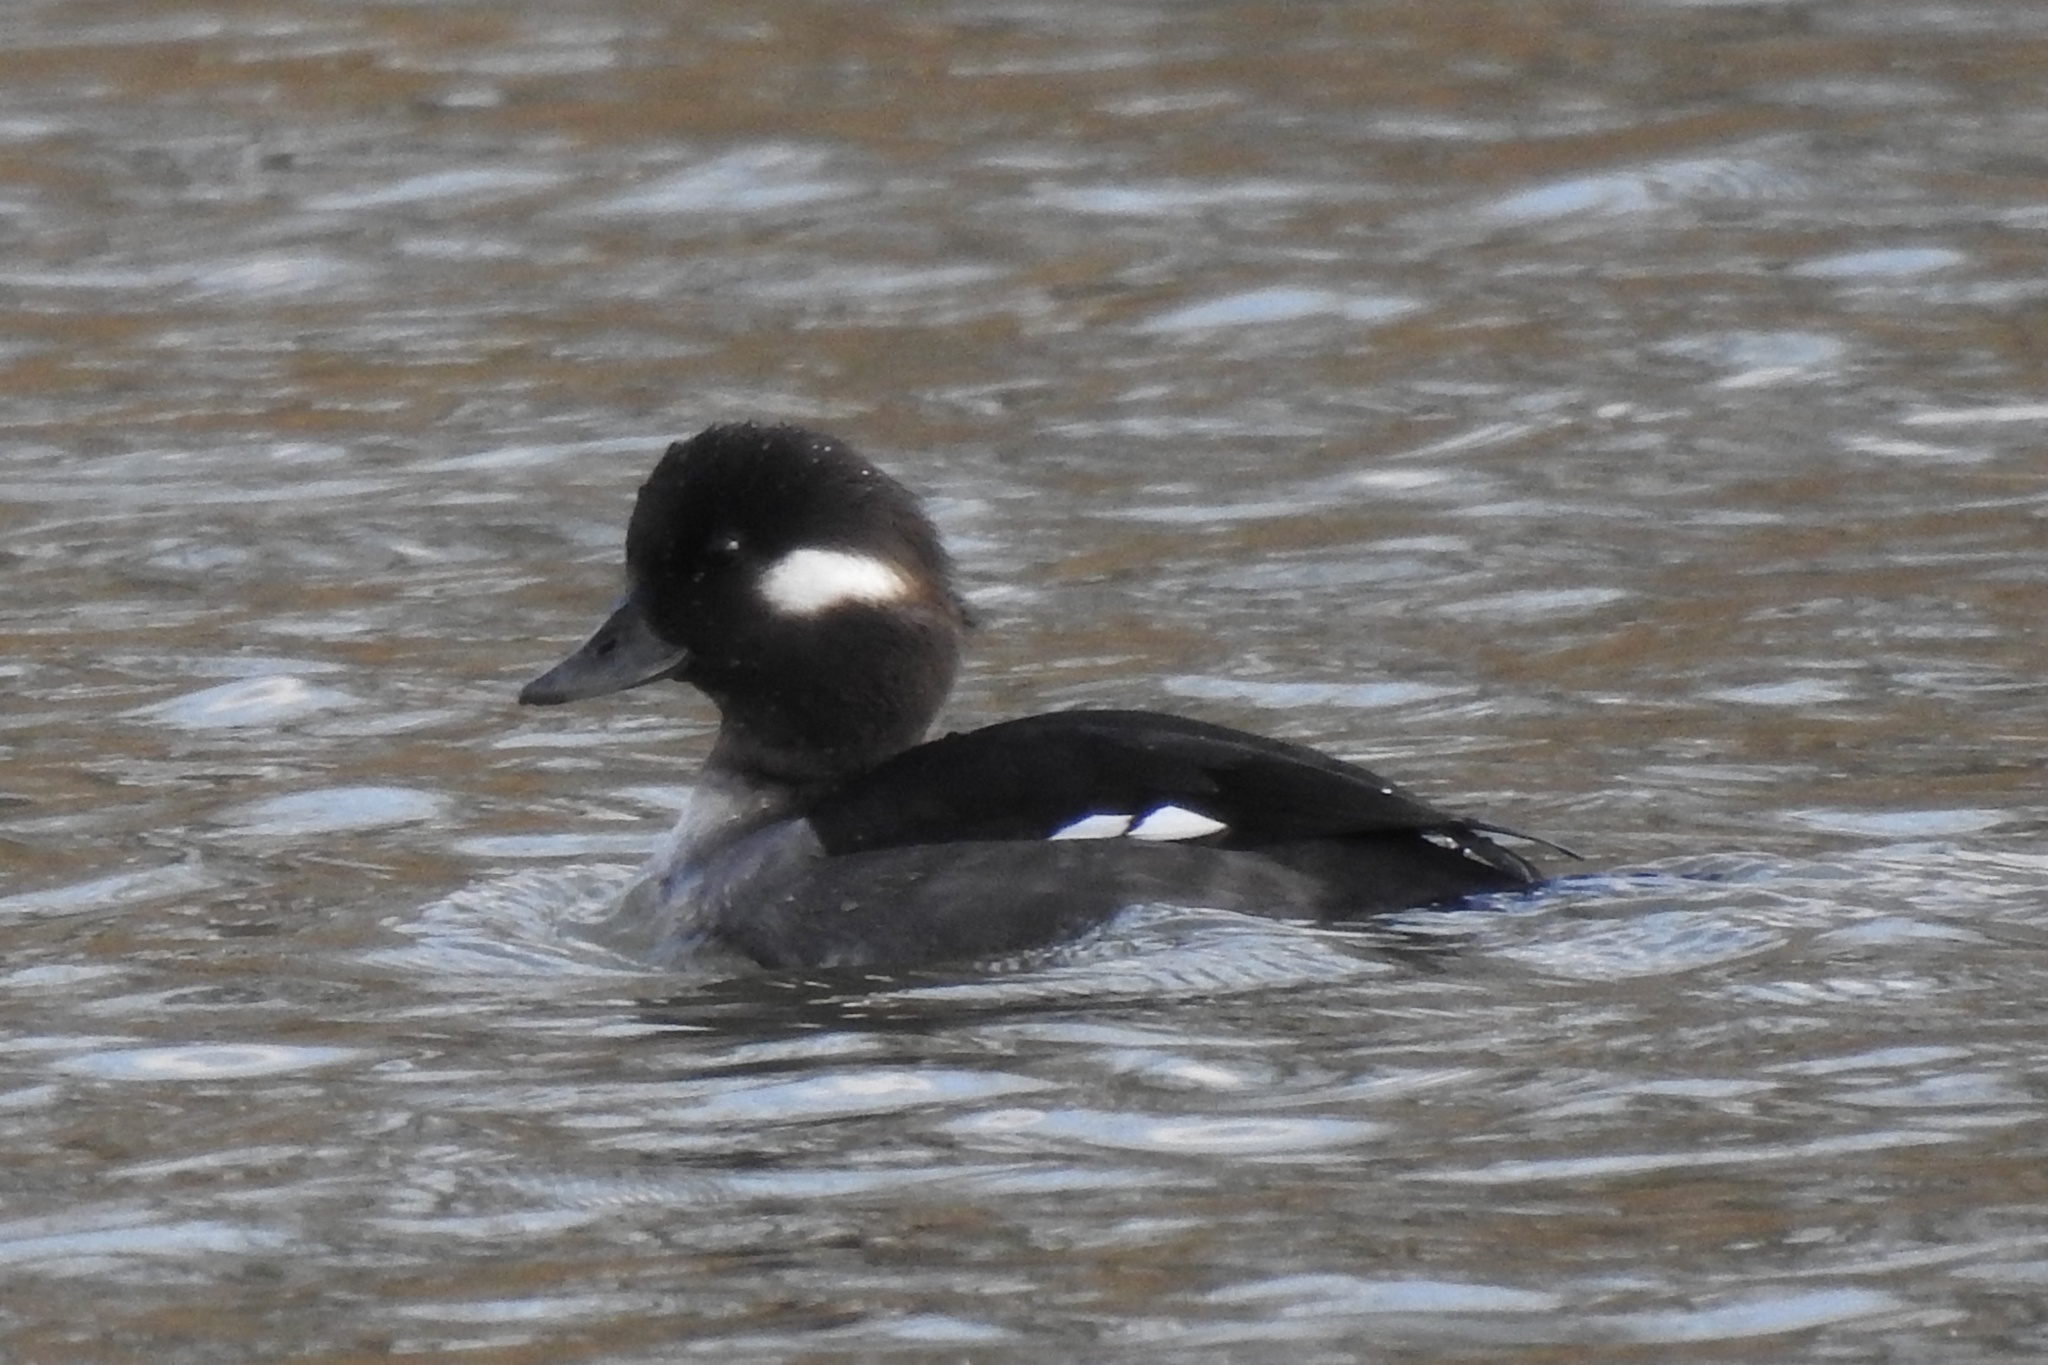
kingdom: Animalia
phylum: Chordata
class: Aves
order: Anseriformes
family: Anatidae
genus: Bucephala
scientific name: Bucephala albeola
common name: Bufflehead
